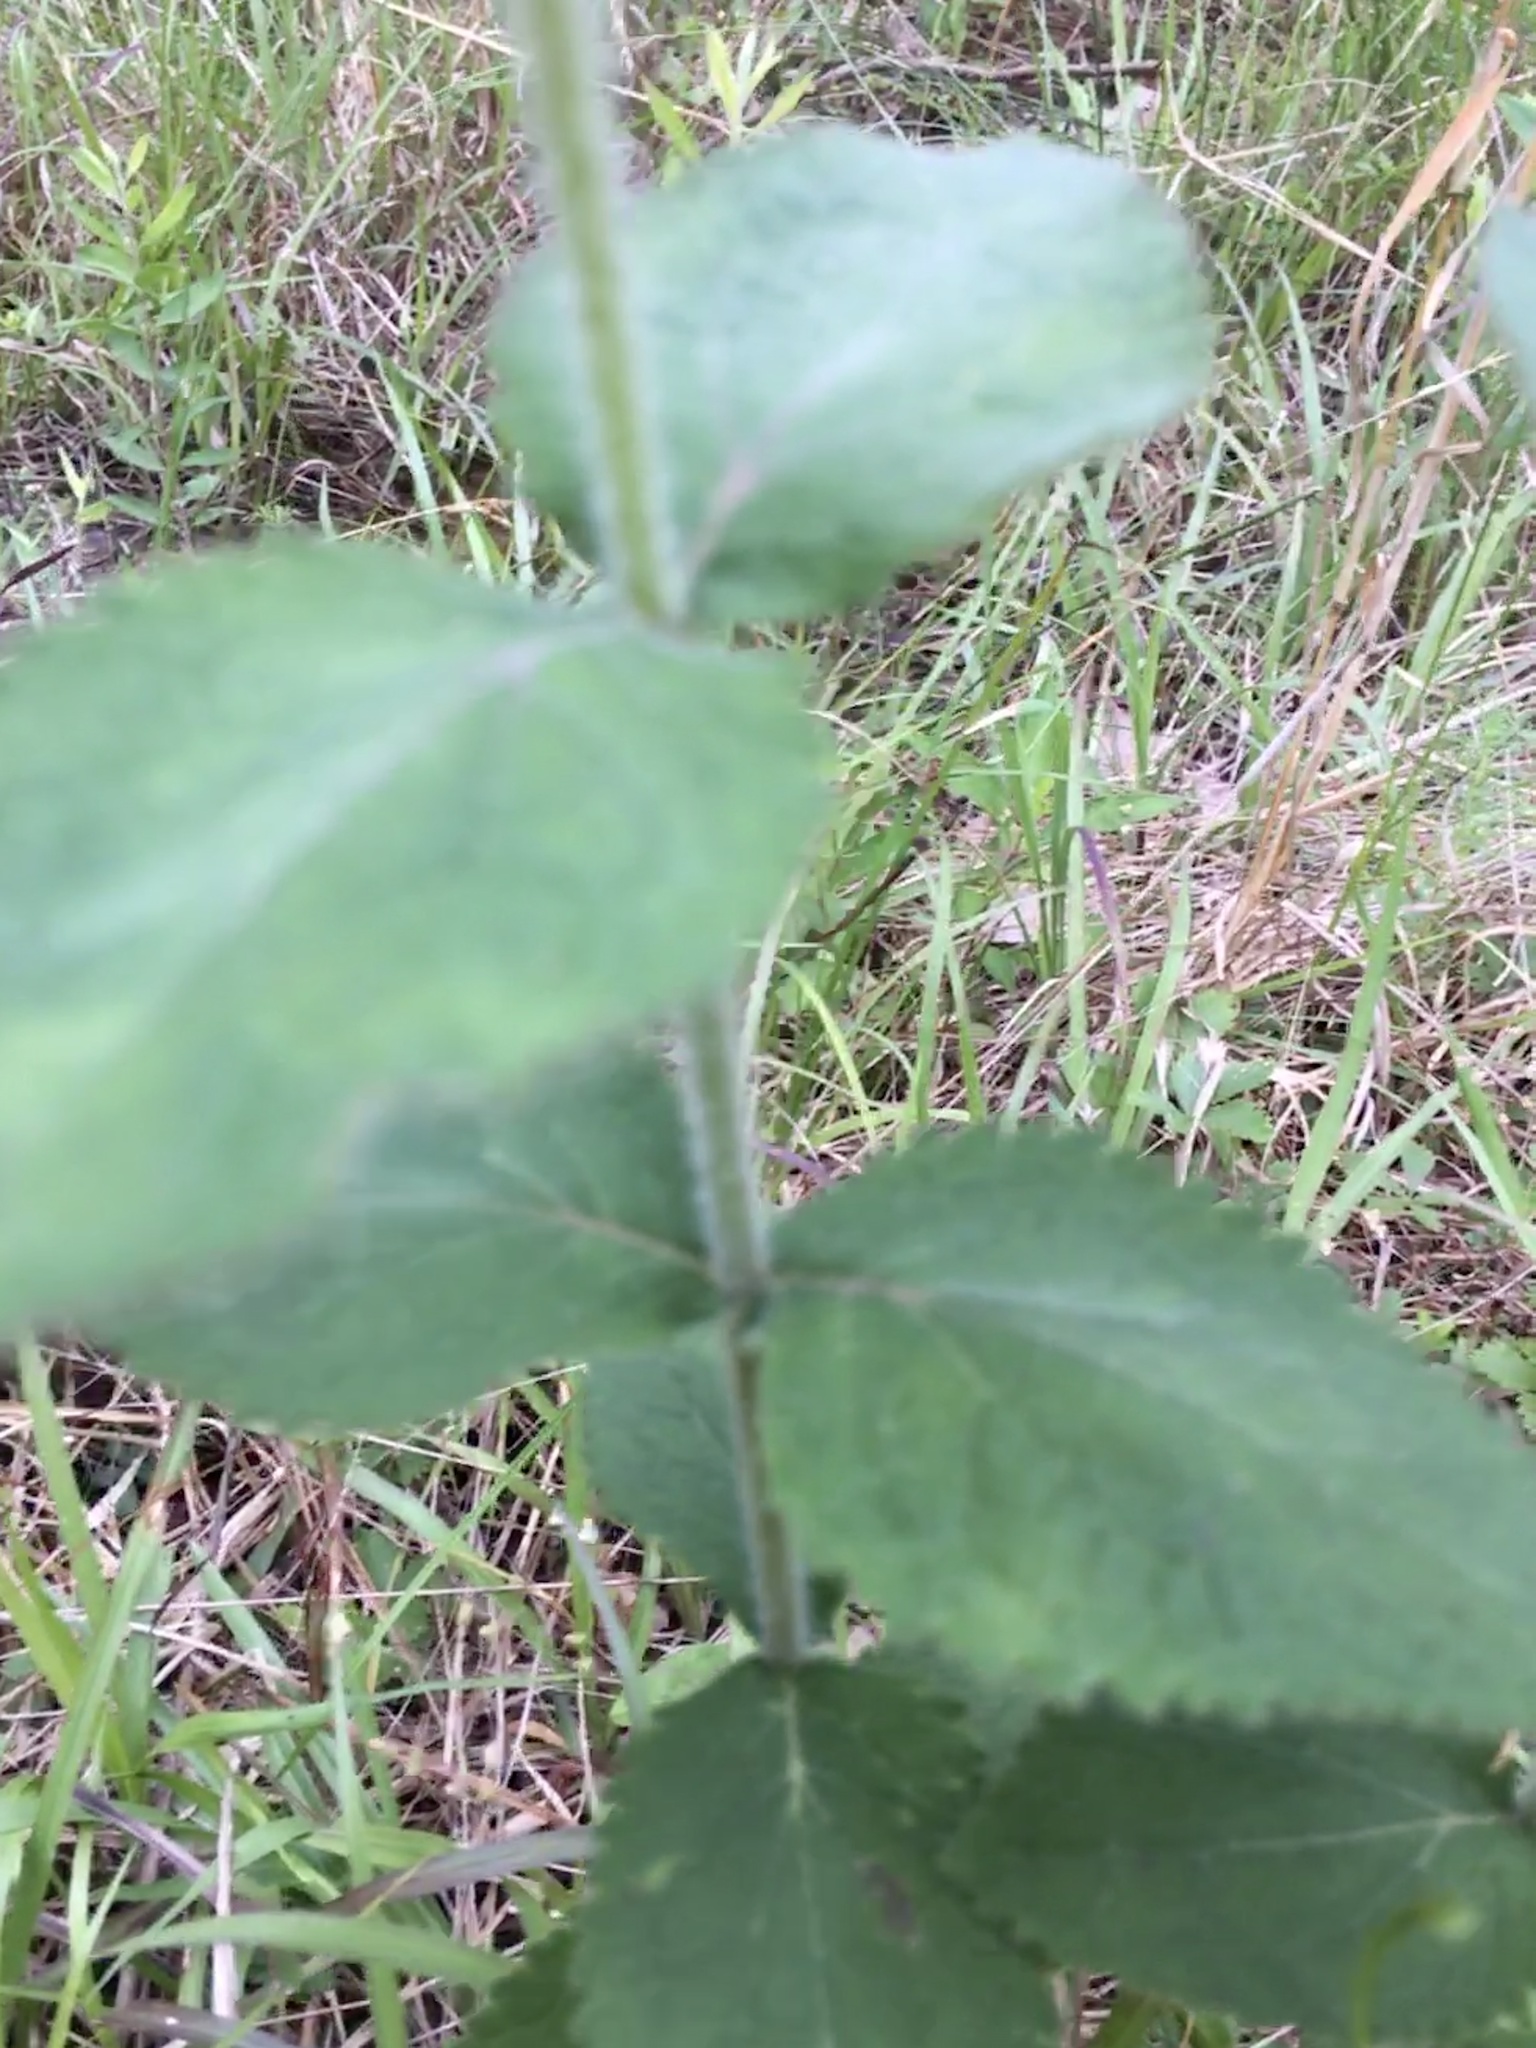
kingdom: Plantae
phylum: Tracheophyta
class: Magnoliopsida
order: Asterales
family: Asteraceae
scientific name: Asteraceae
